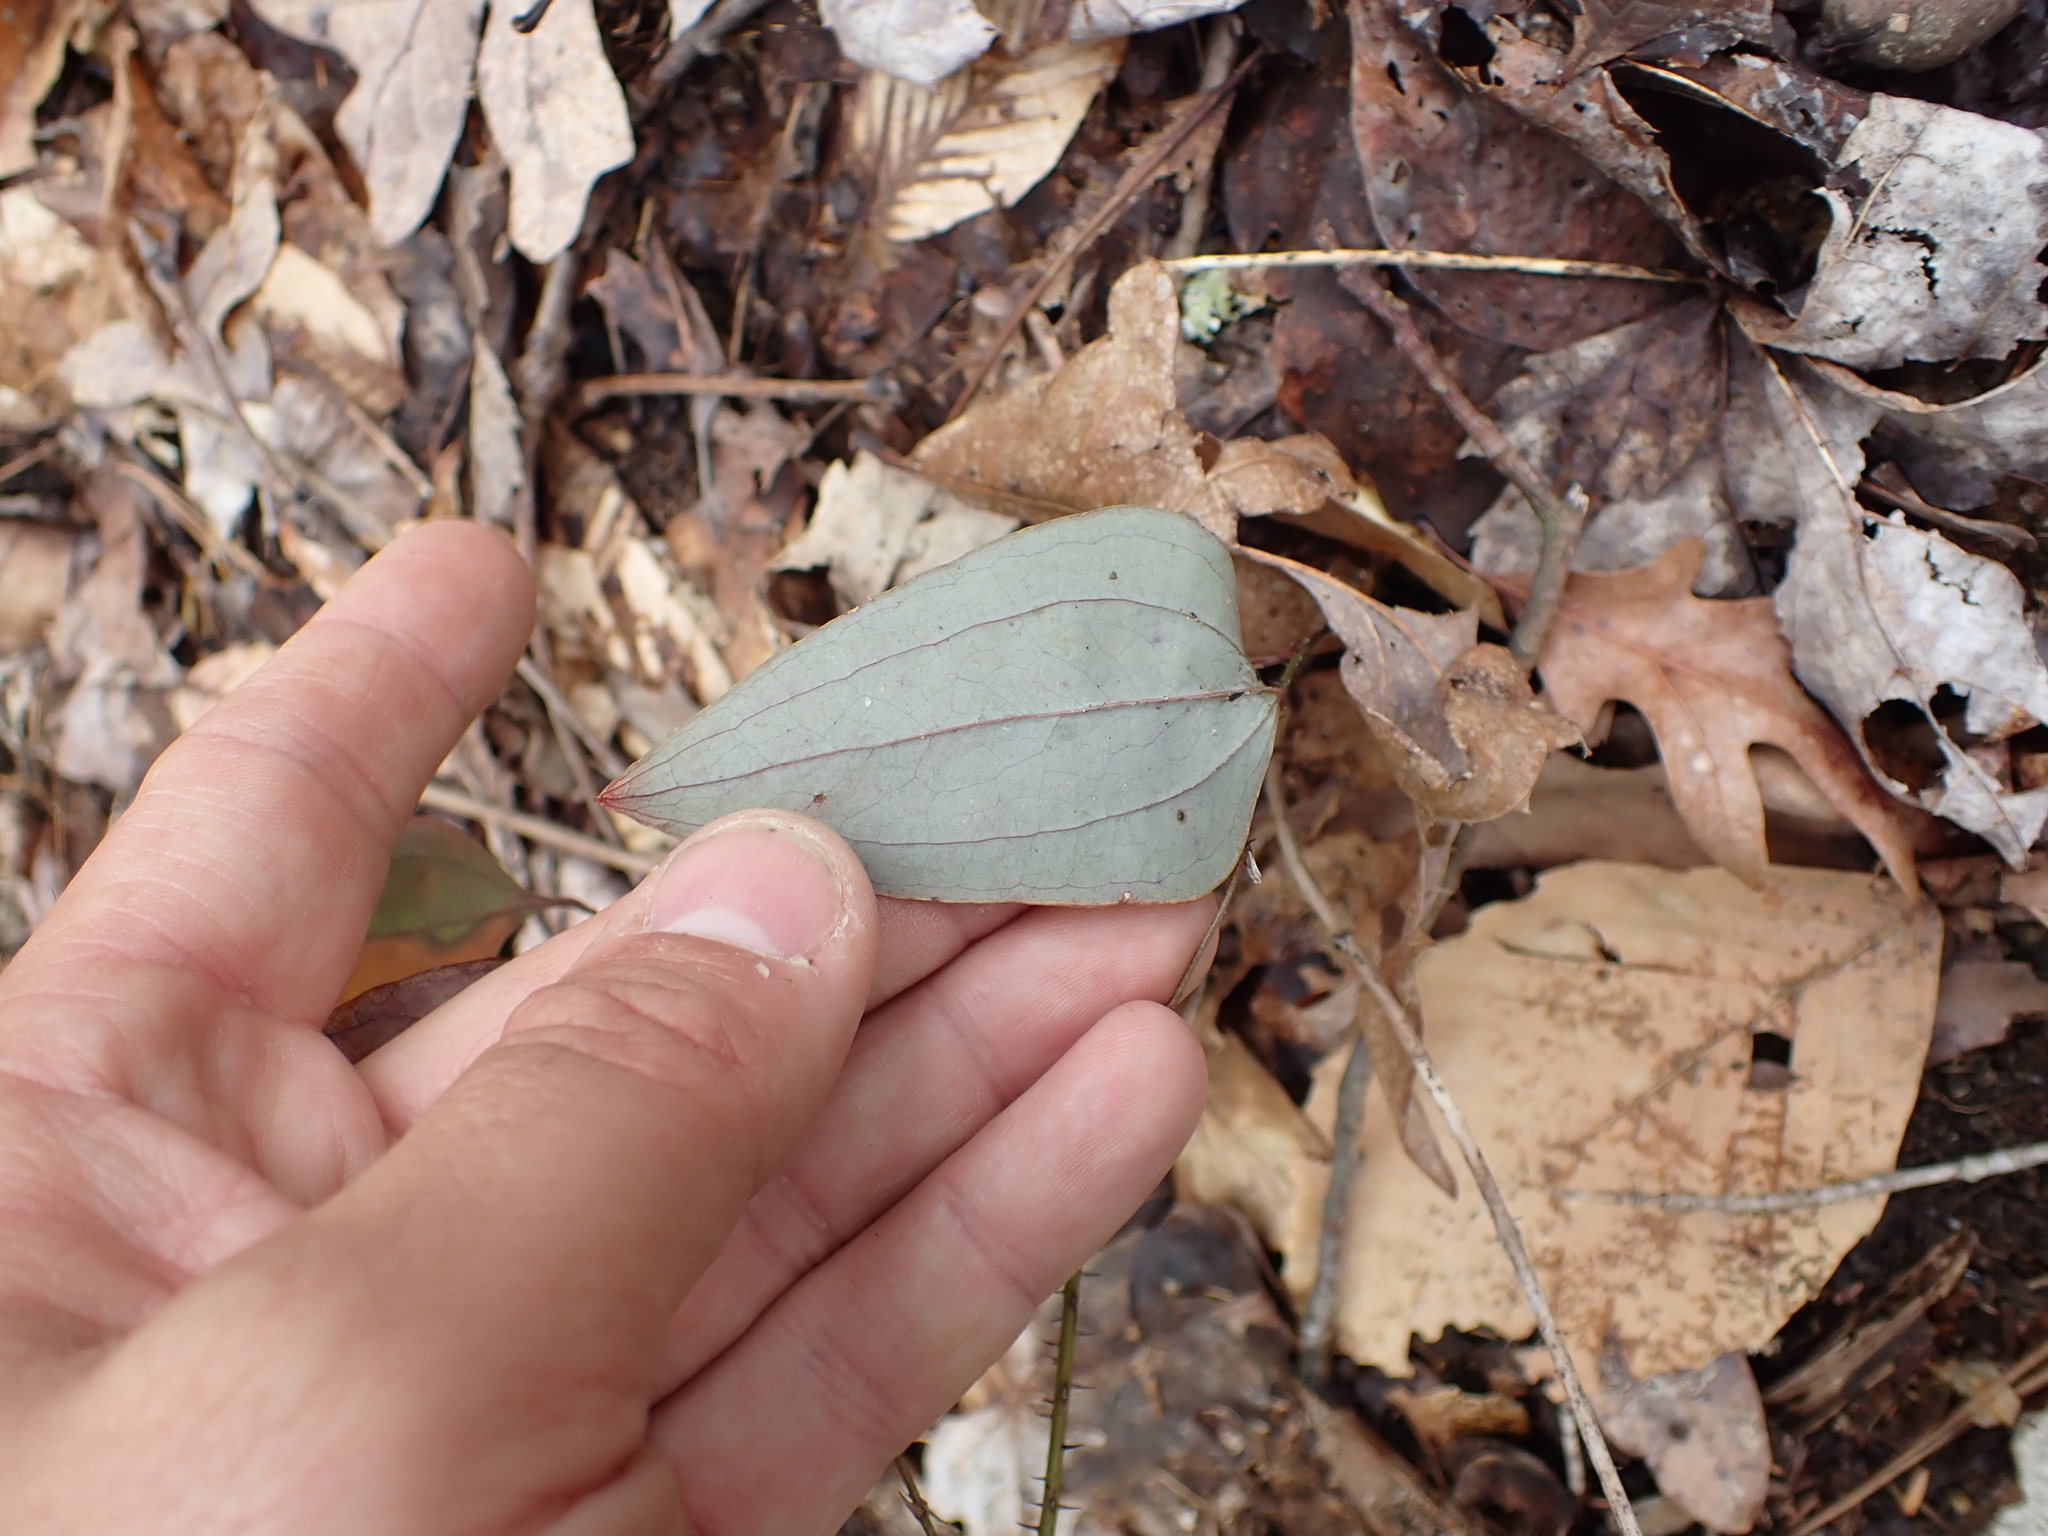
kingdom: Plantae
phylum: Tracheophyta
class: Liliopsida
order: Liliales
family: Smilacaceae
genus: Smilax
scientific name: Smilax glauca
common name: Cat greenbrier
